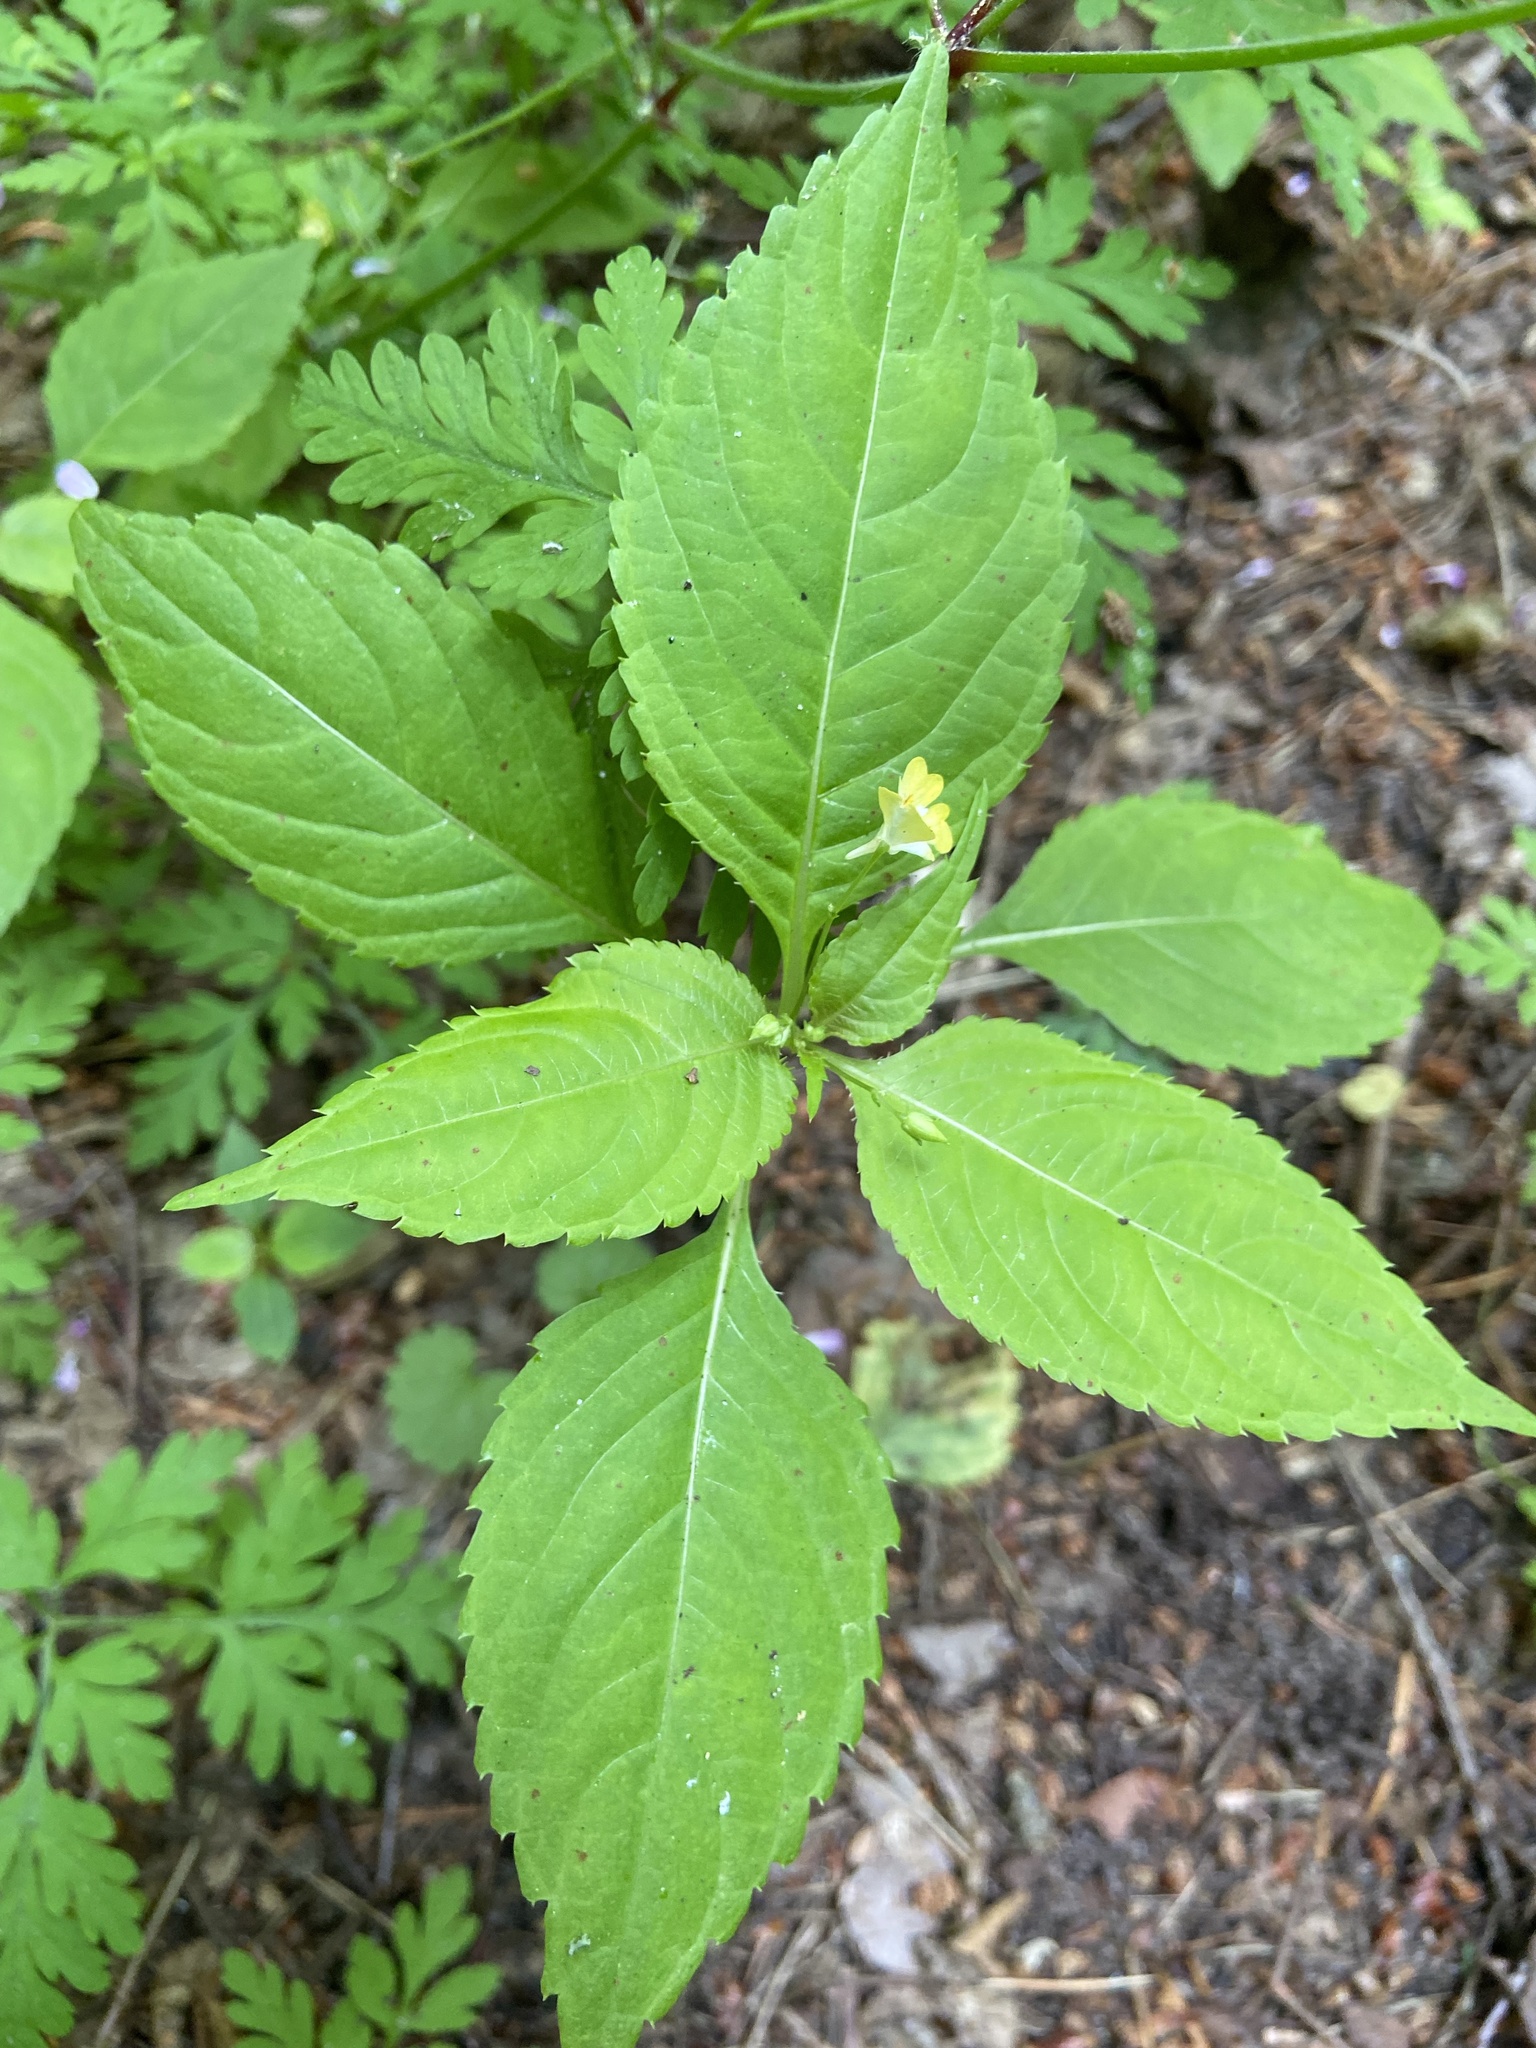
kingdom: Plantae
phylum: Tracheophyta
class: Magnoliopsida
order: Ericales
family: Balsaminaceae
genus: Impatiens
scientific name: Impatiens parviflora
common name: Small balsam
